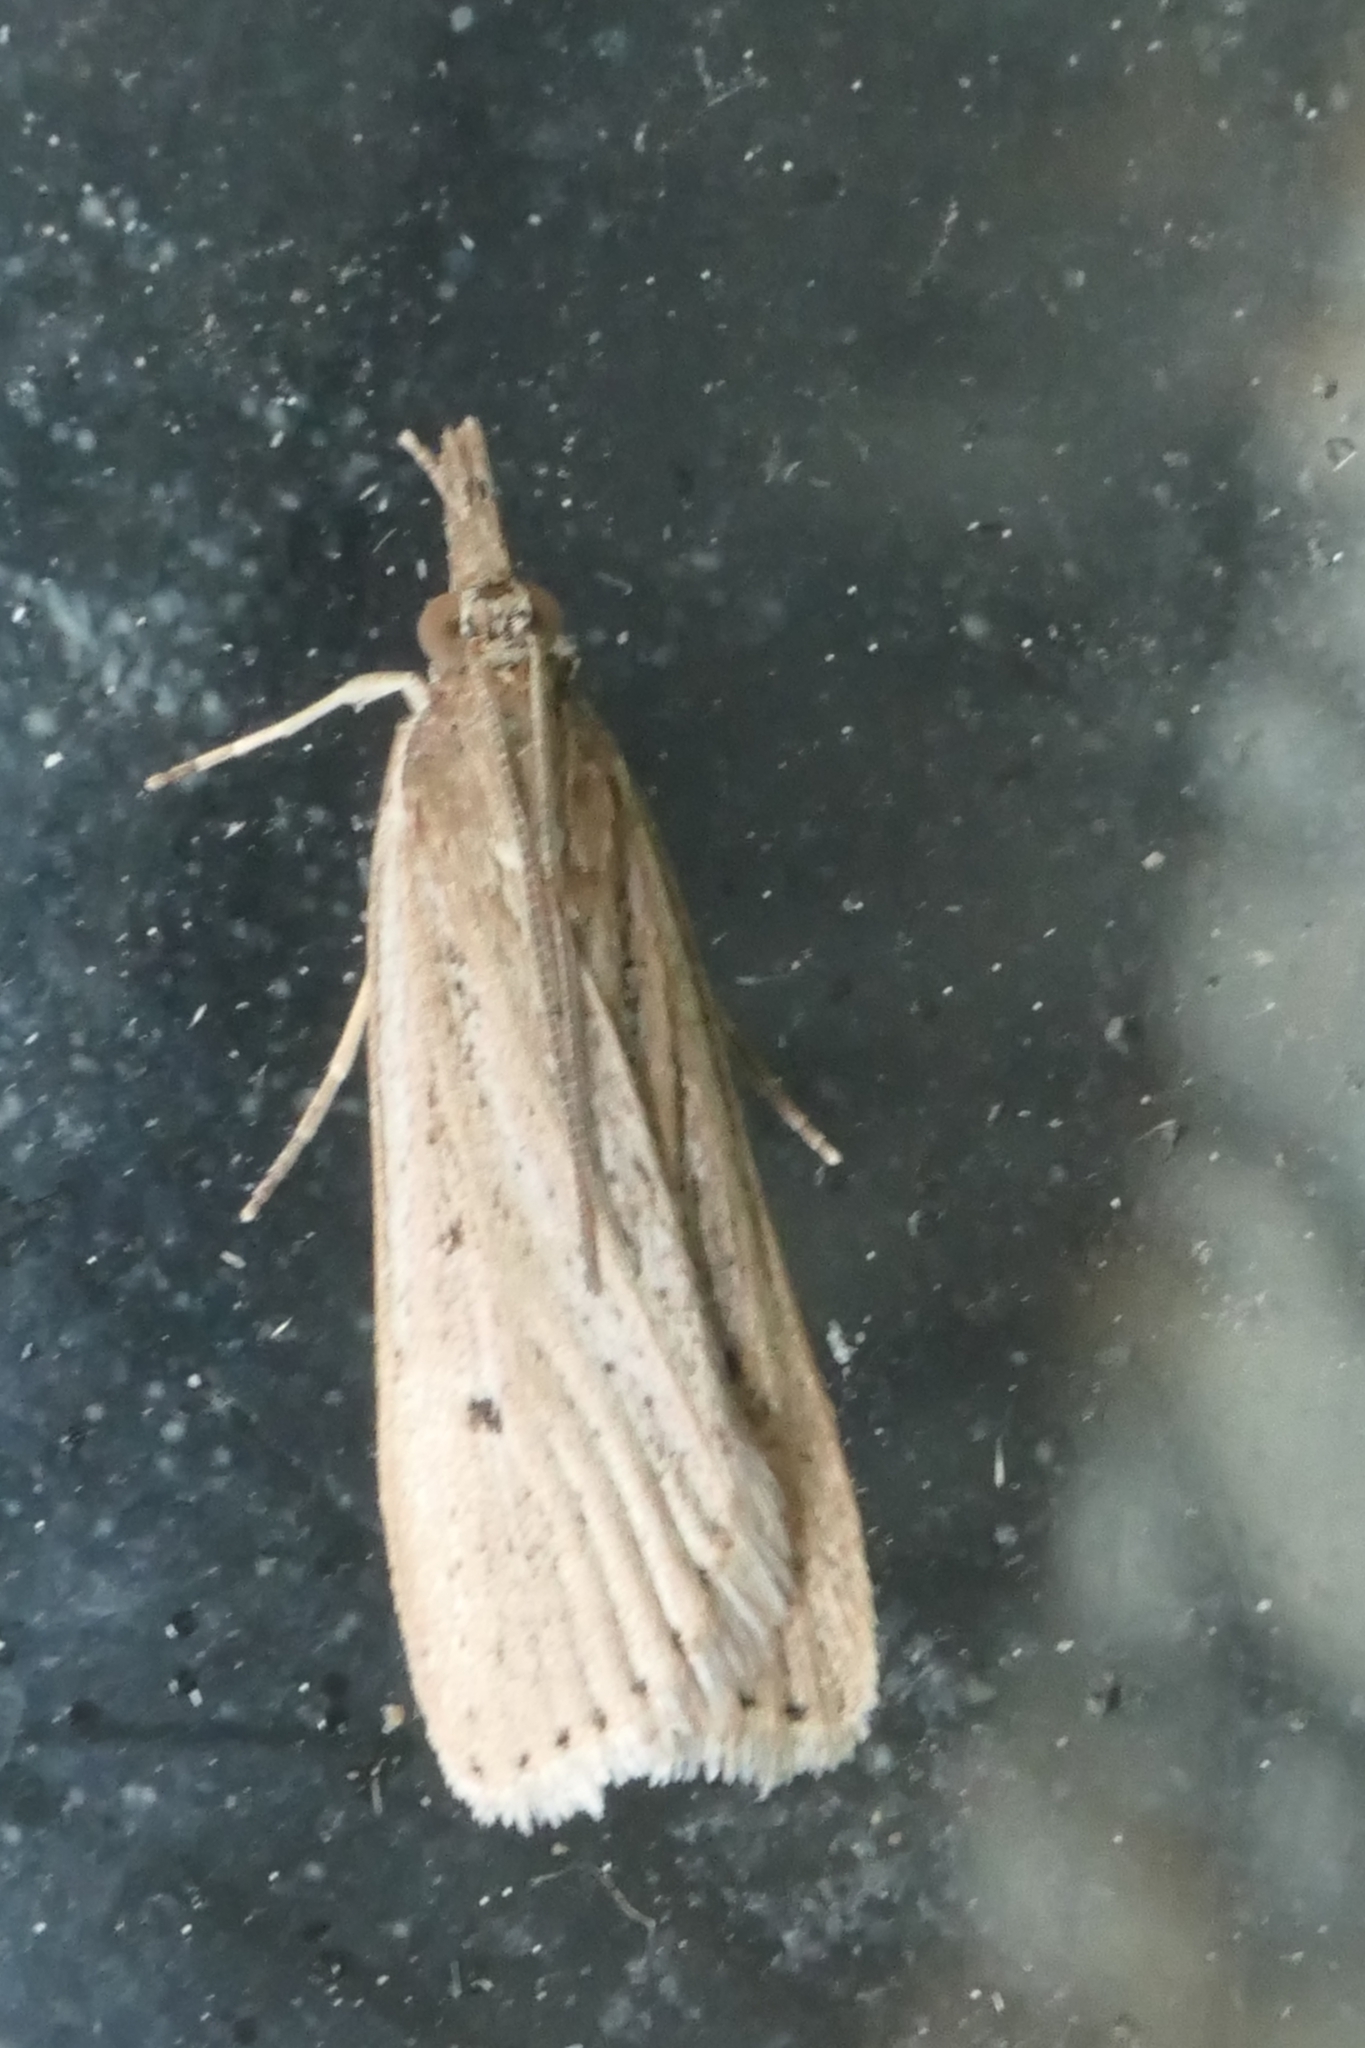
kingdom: Animalia
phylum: Arthropoda
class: Insecta
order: Lepidoptera
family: Crambidae
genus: Eudonia
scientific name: Eudonia sabulosella
